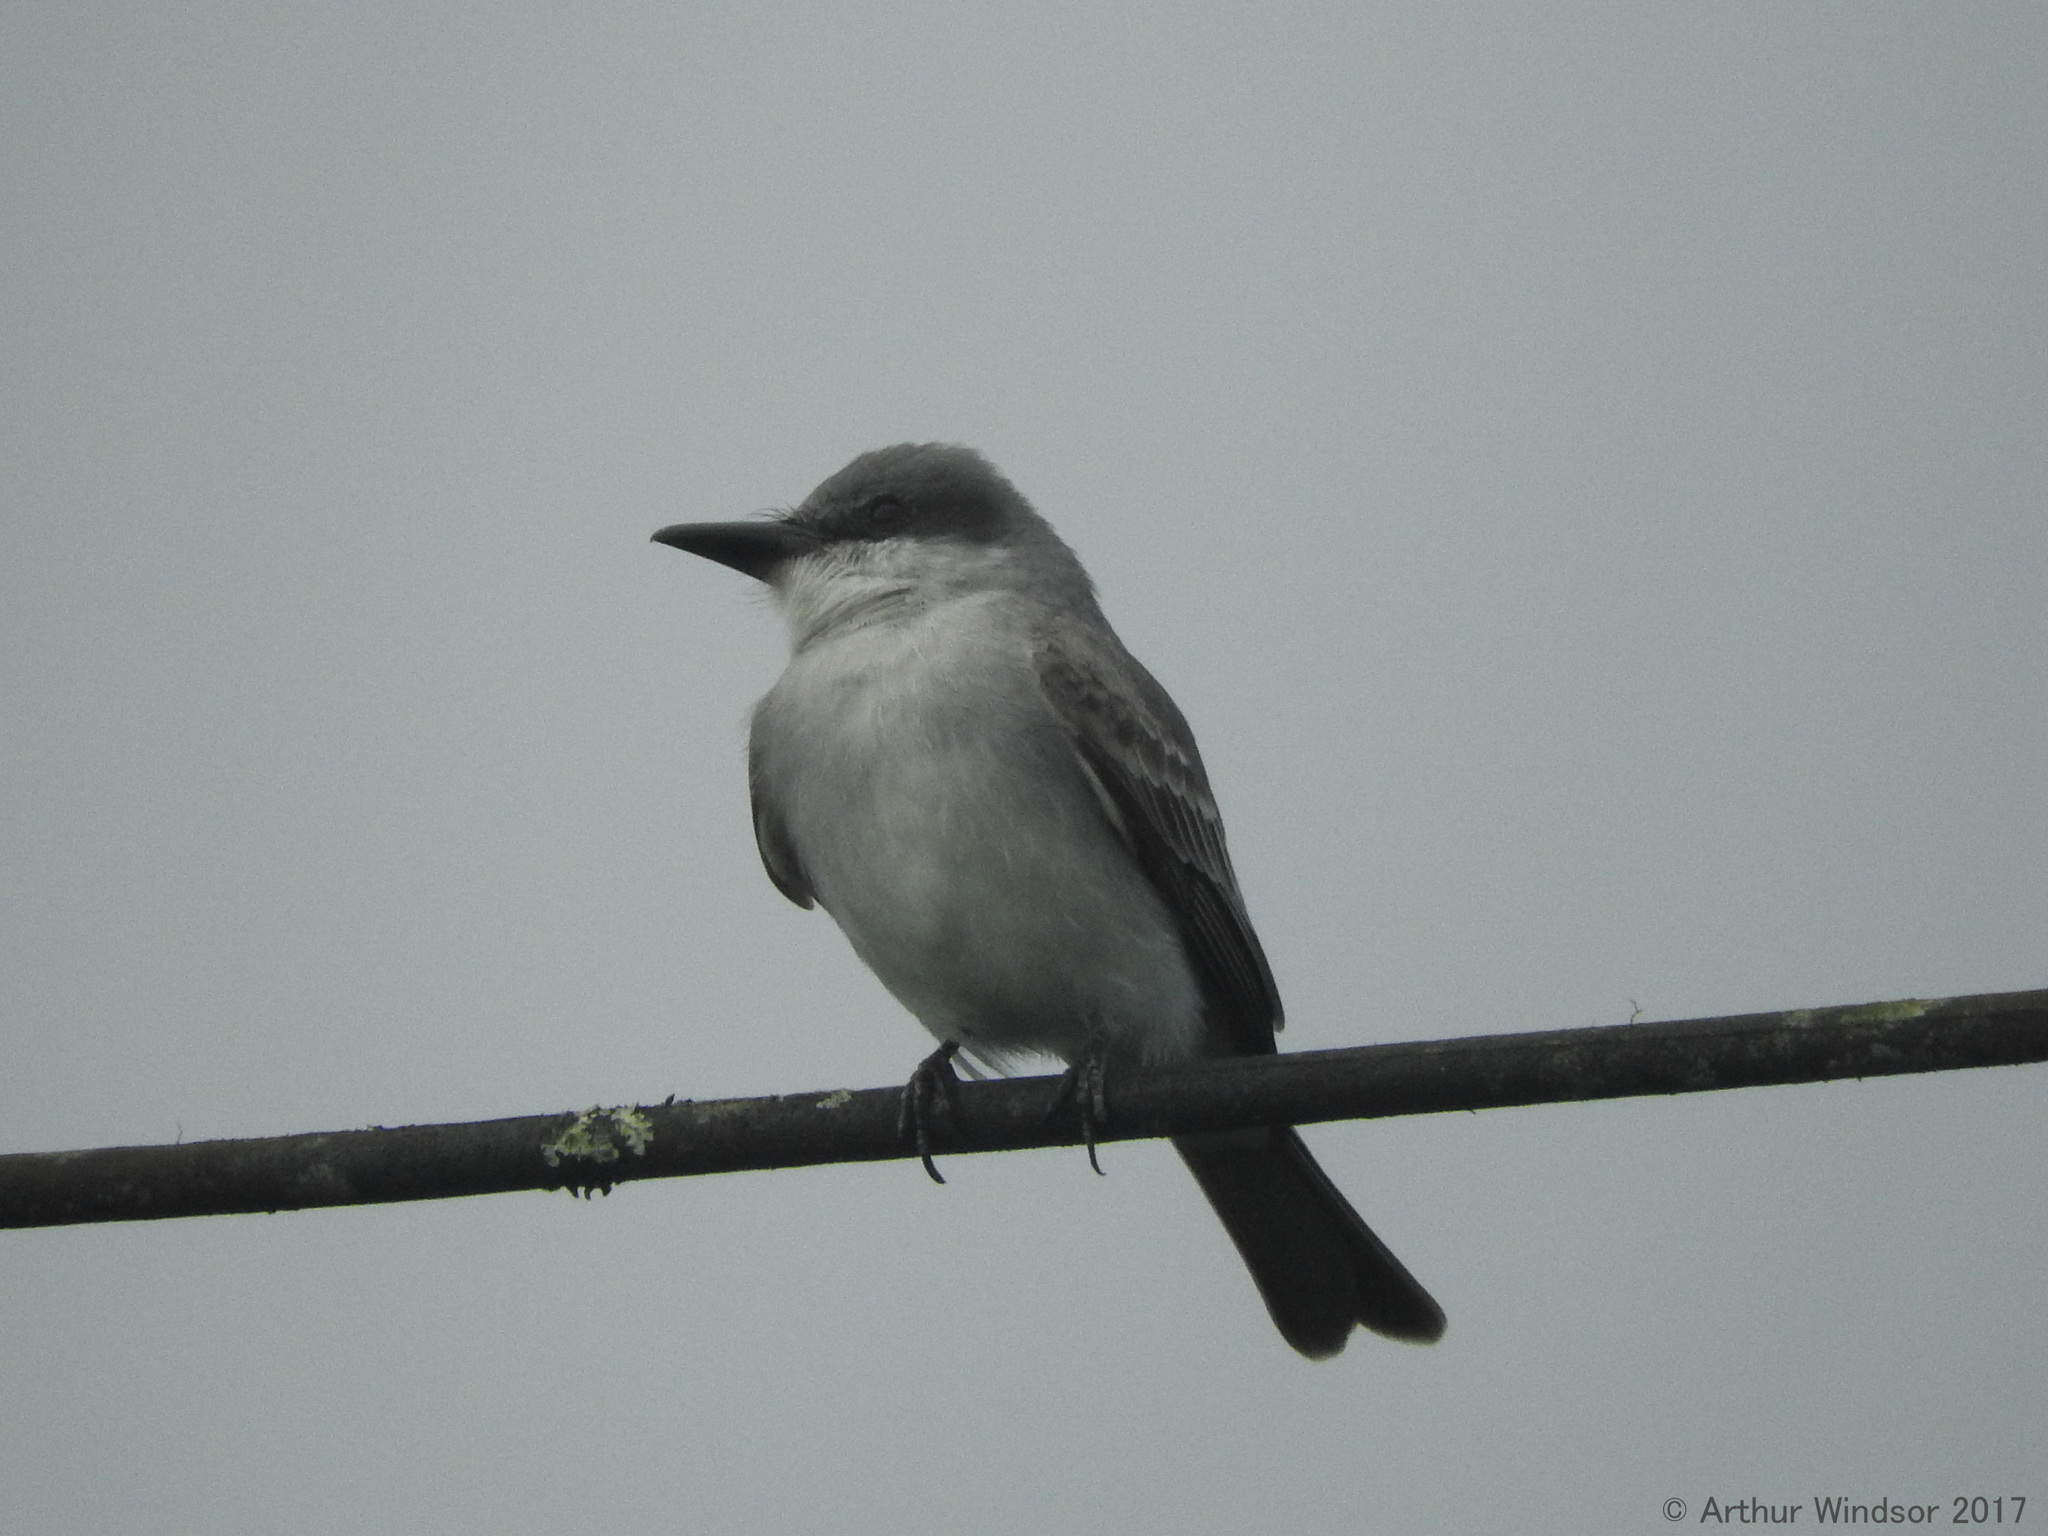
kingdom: Animalia
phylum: Chordata
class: Aves
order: Passeriformes
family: Tyrannidae
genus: Tyrannus
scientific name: Tyrannus dominicensis
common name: Gray kingbird
